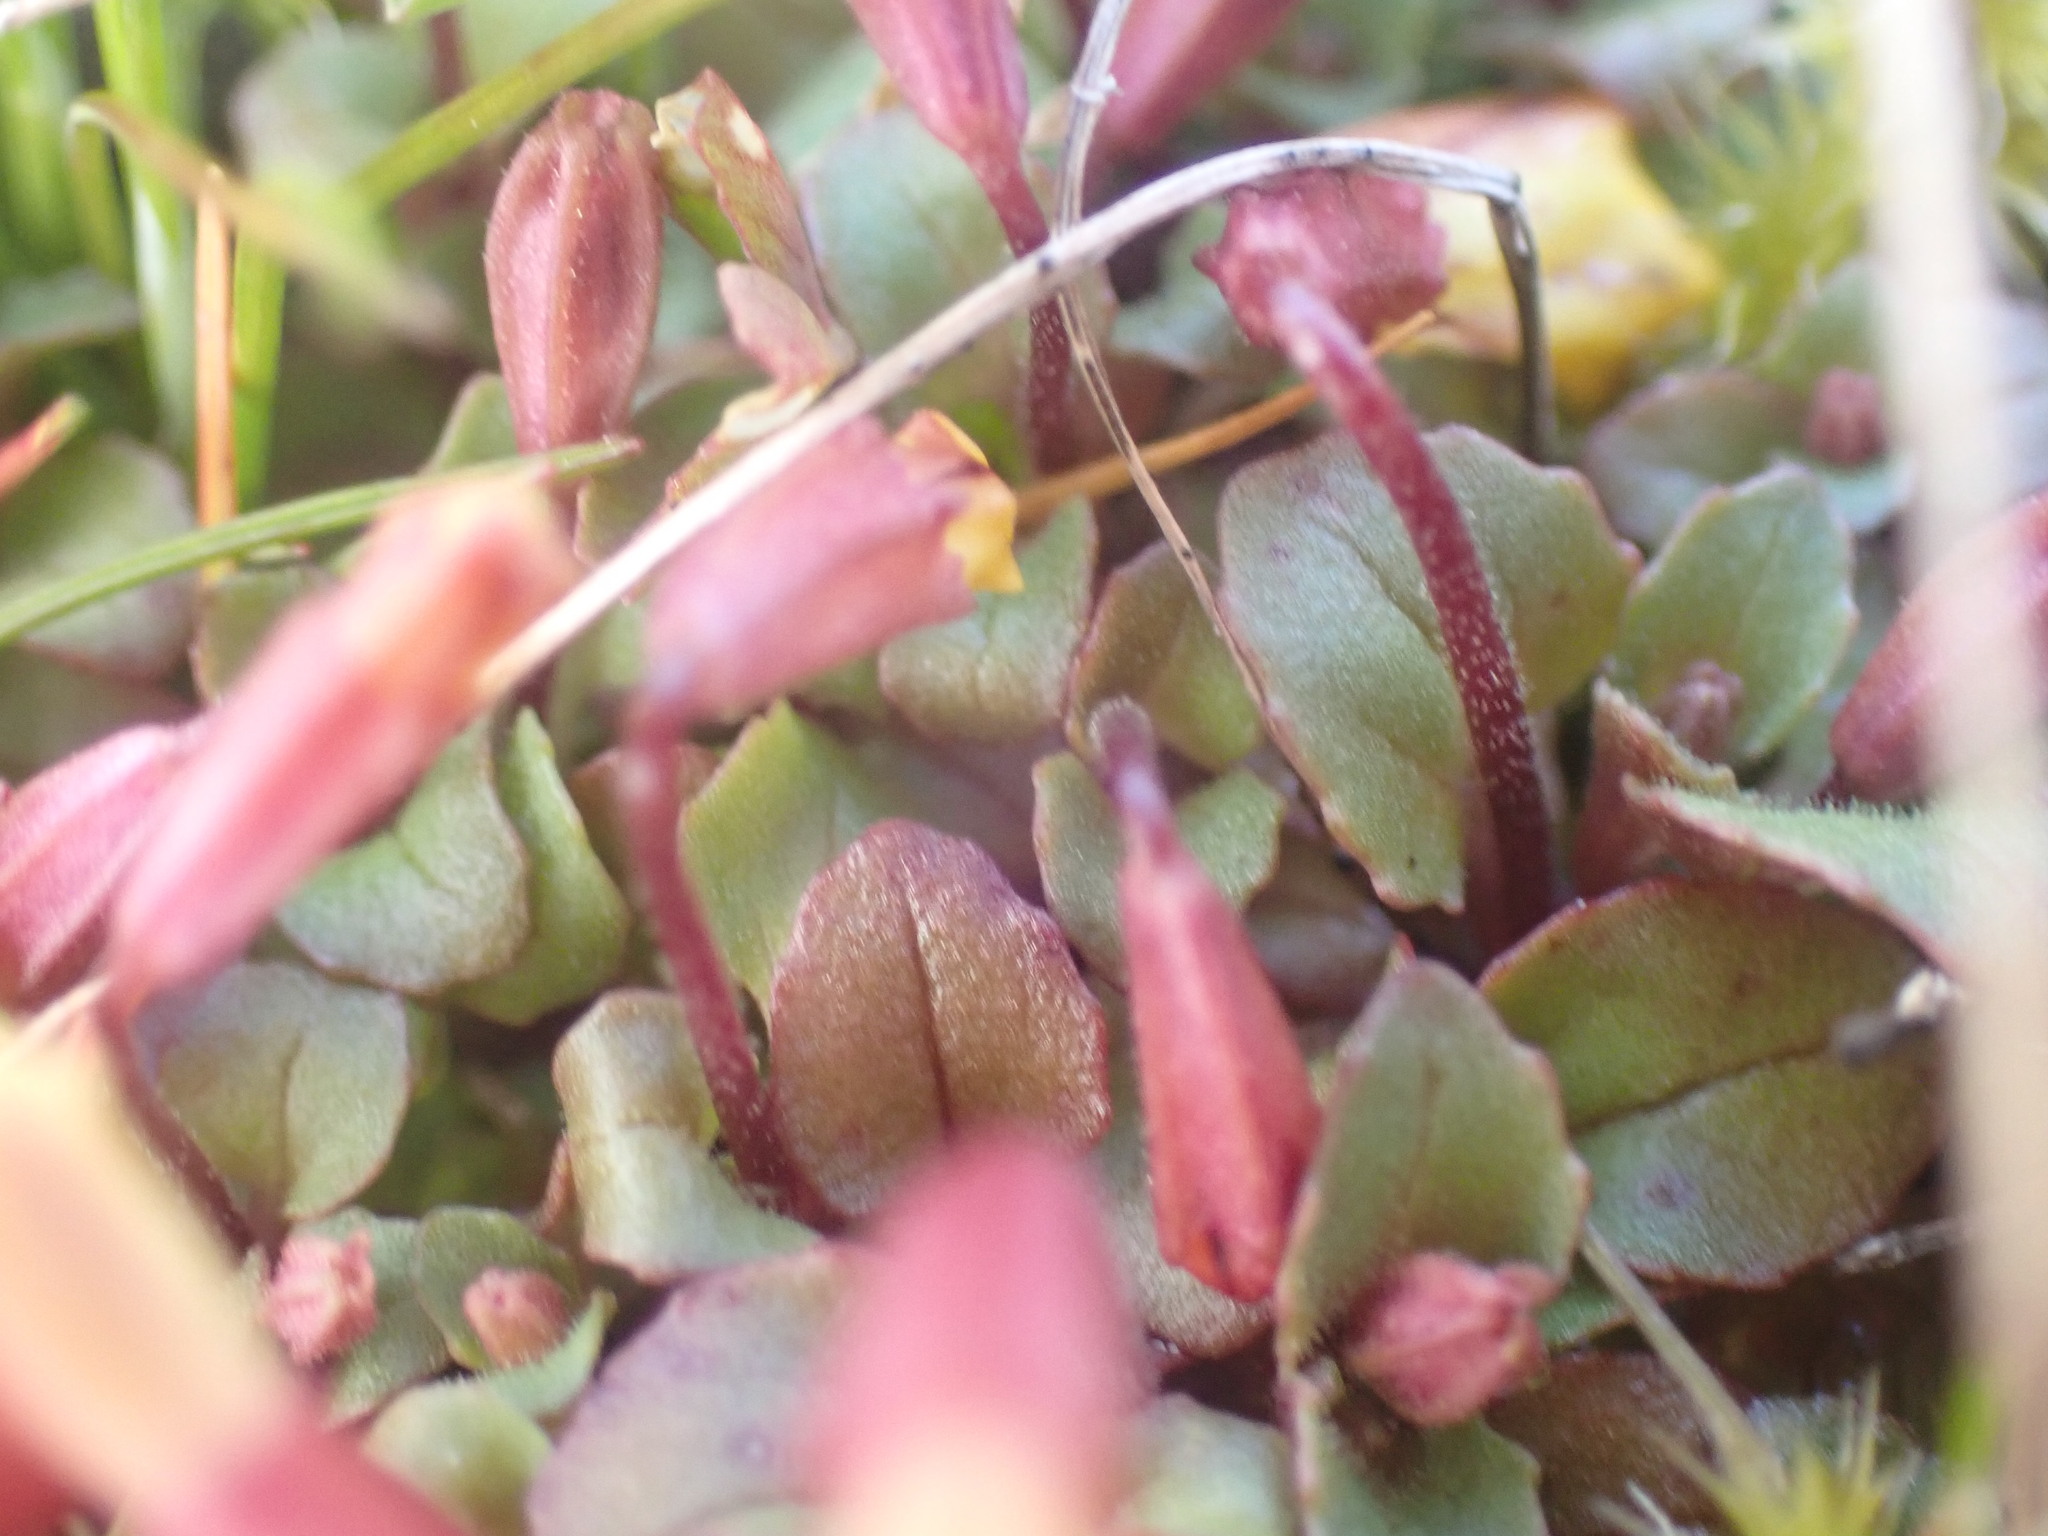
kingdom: Plantae
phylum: Tracheophyta
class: Magnoliopsida
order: Lamiales
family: Phrymaceae
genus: Erythranthe
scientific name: Erythranthe alsinoides
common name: Chickweed monkeyflower
